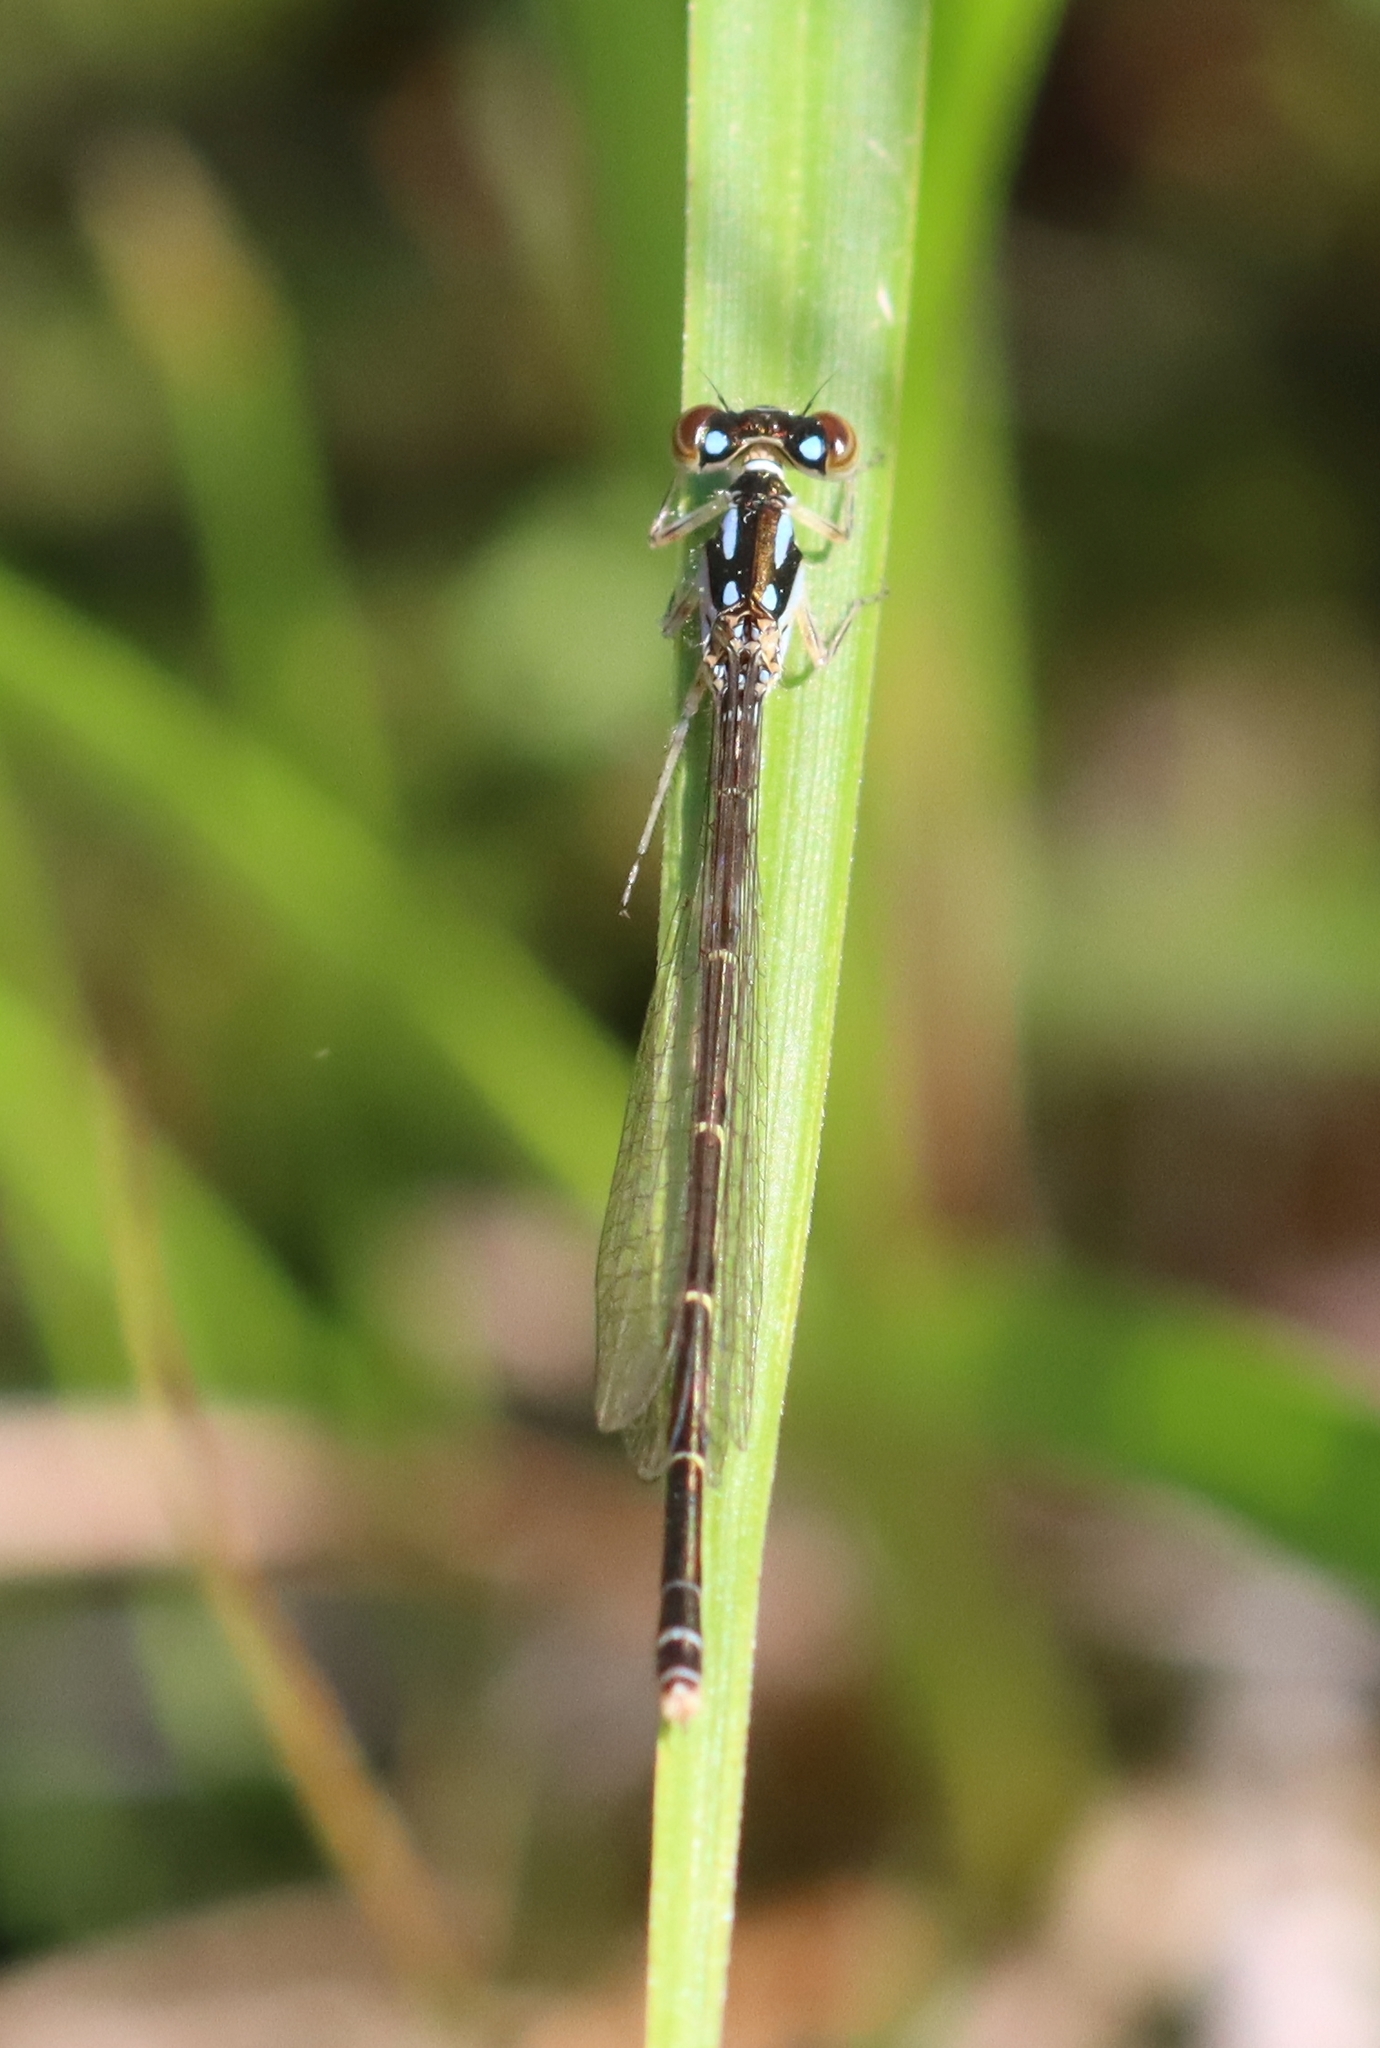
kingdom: Animalia
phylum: Arthropoda
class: Insecta
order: Odonata
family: Coenagrionidae
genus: Ischnura
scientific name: Ischnura posita
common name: Fragile forktail
